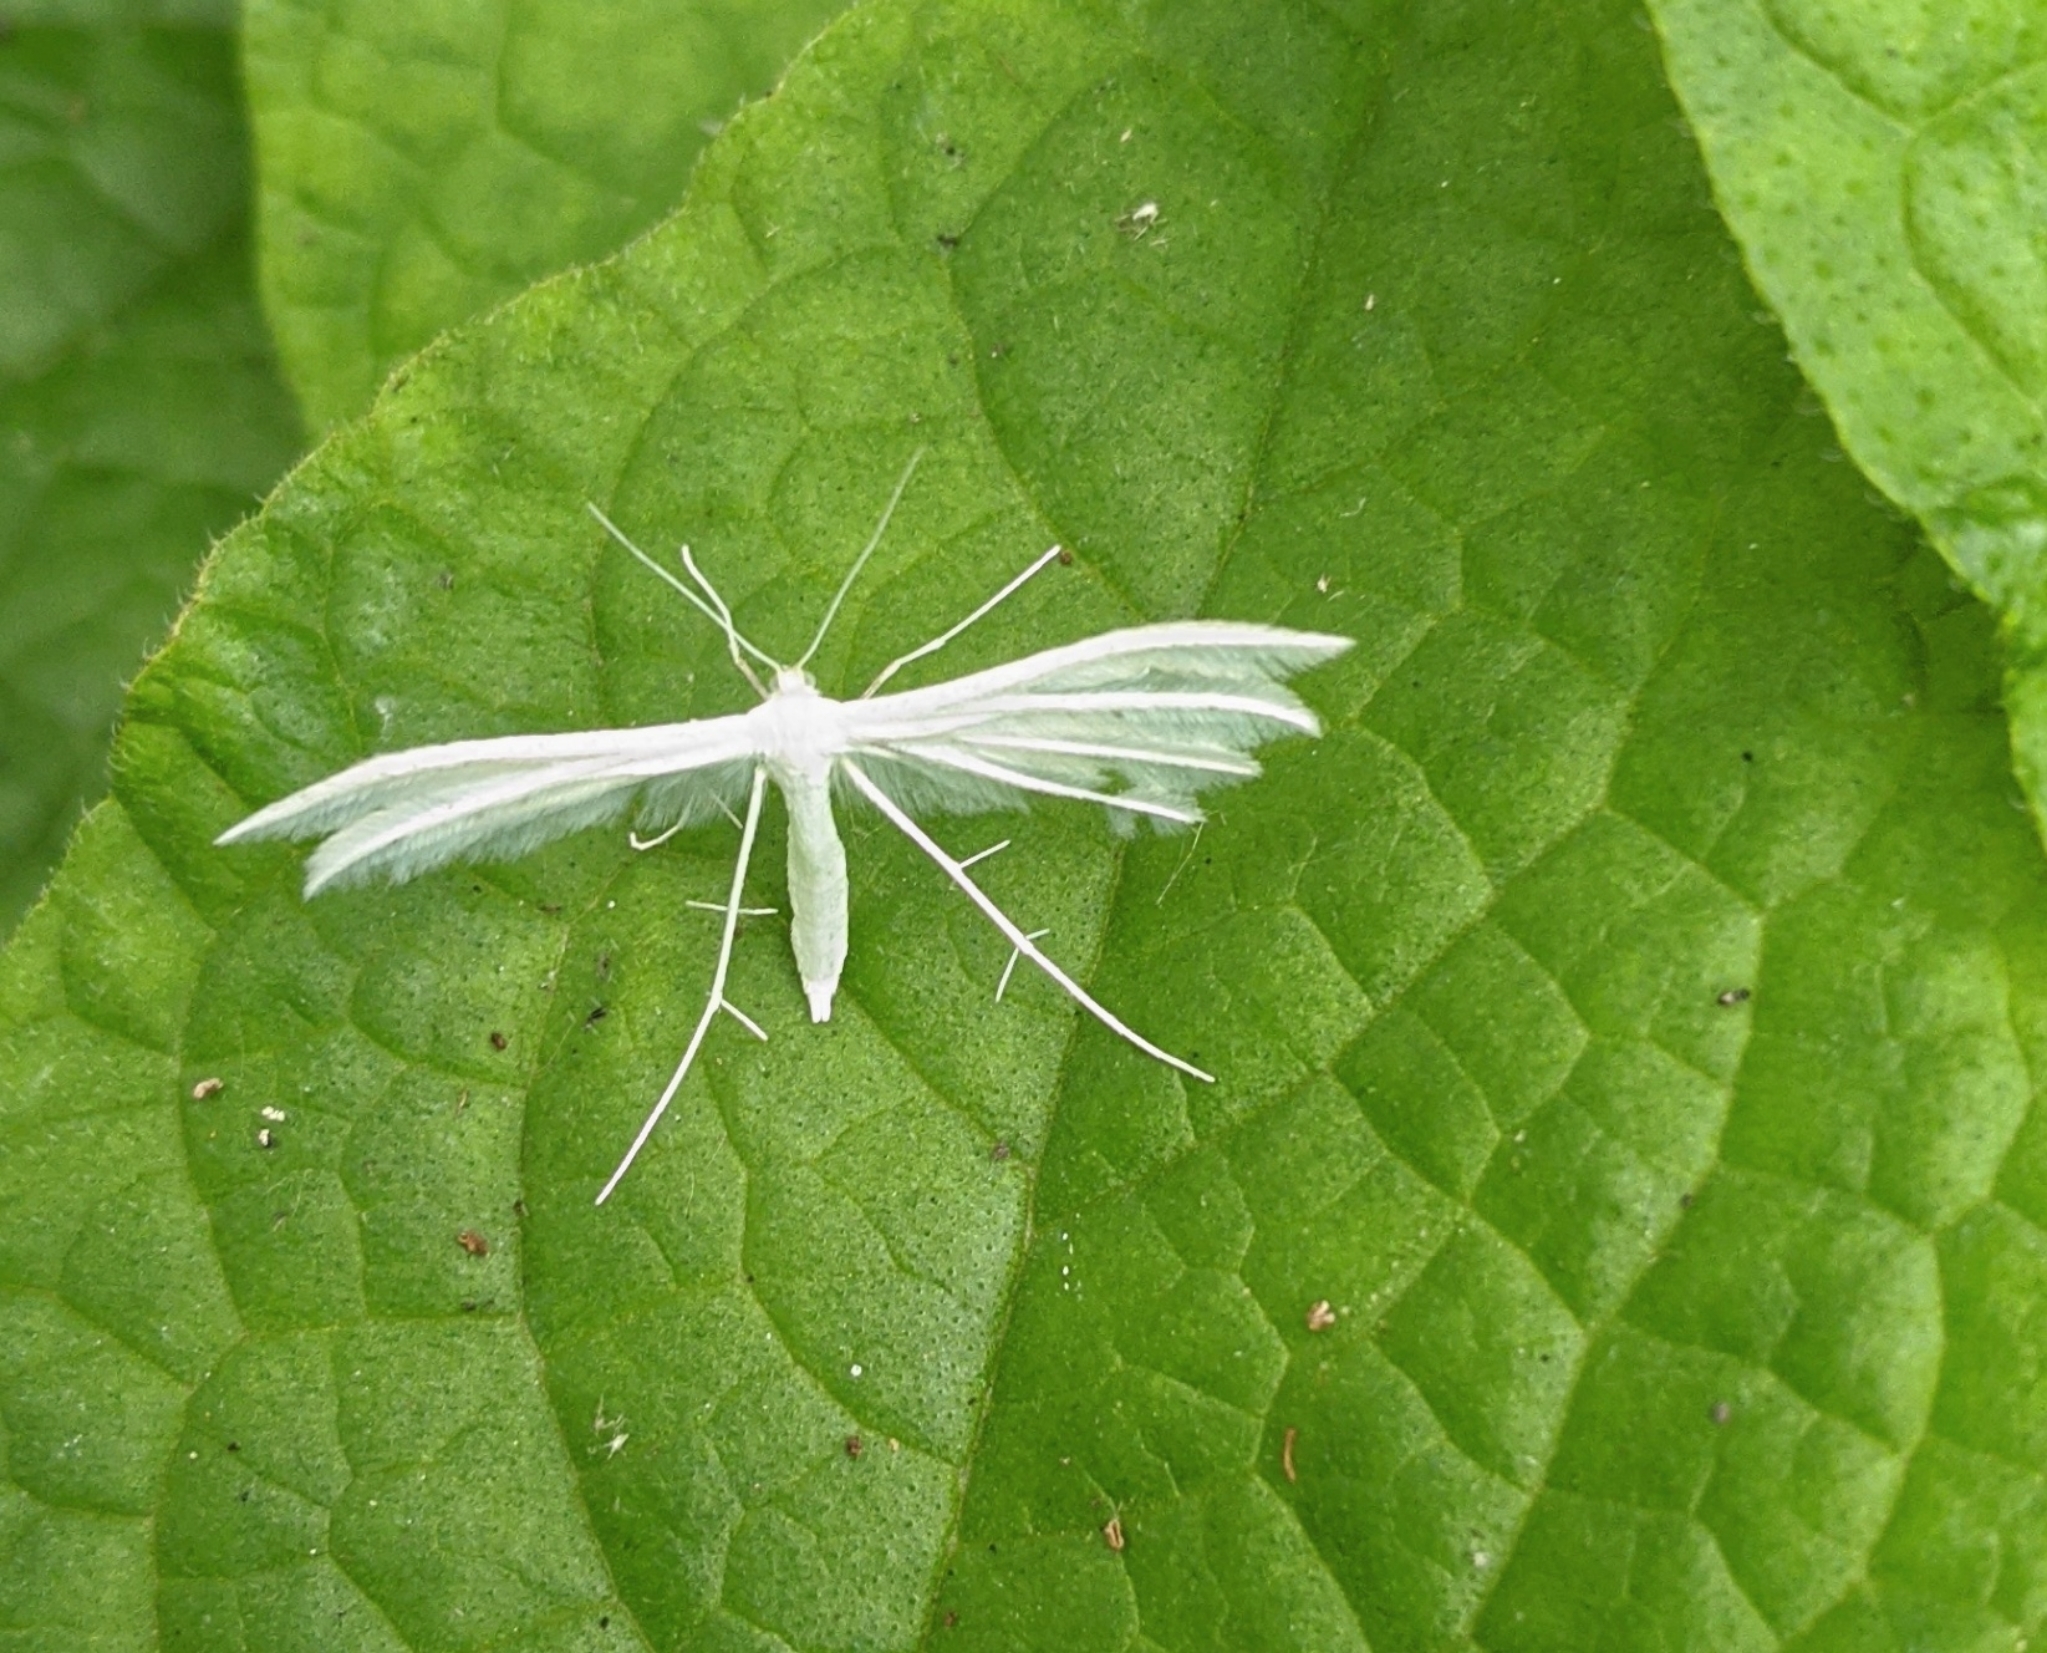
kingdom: Animalia
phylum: Arthropoda
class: Insecta
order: Lepidoptera
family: Pterophoridae
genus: Pterophorus
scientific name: Pterophorus pentadactyla
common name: White plume moth
